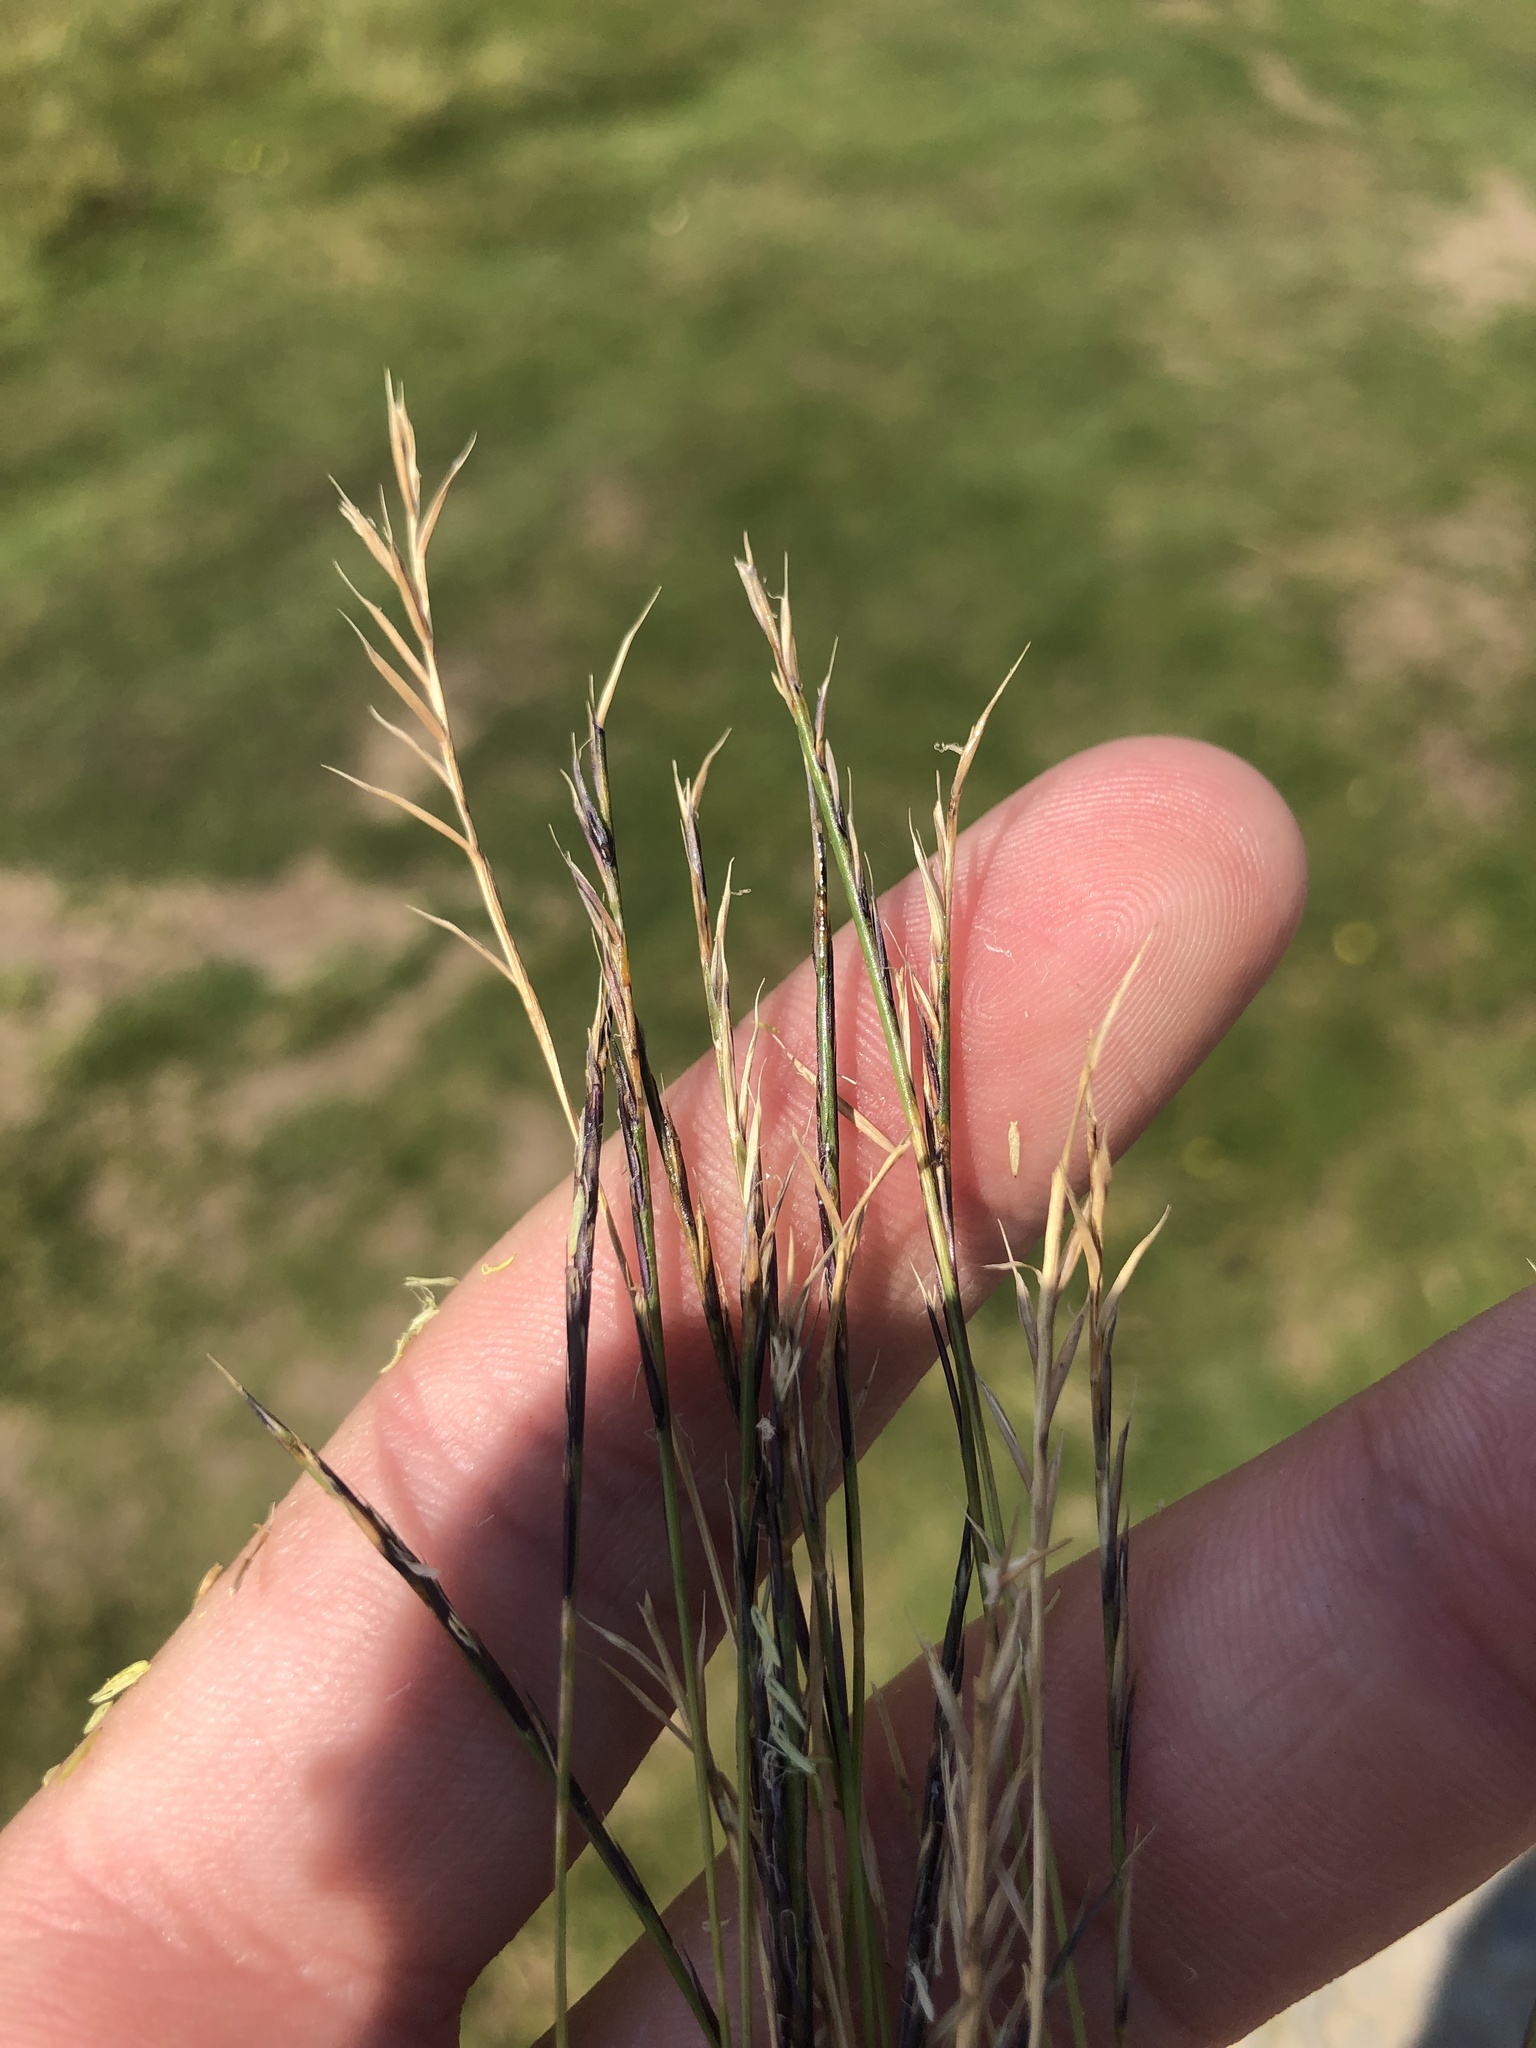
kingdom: Plantae
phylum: Tracheophyta
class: Liliopsida
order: Poales
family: Poaceae
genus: Nardus
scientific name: Nardus stricta
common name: Mat-grass
